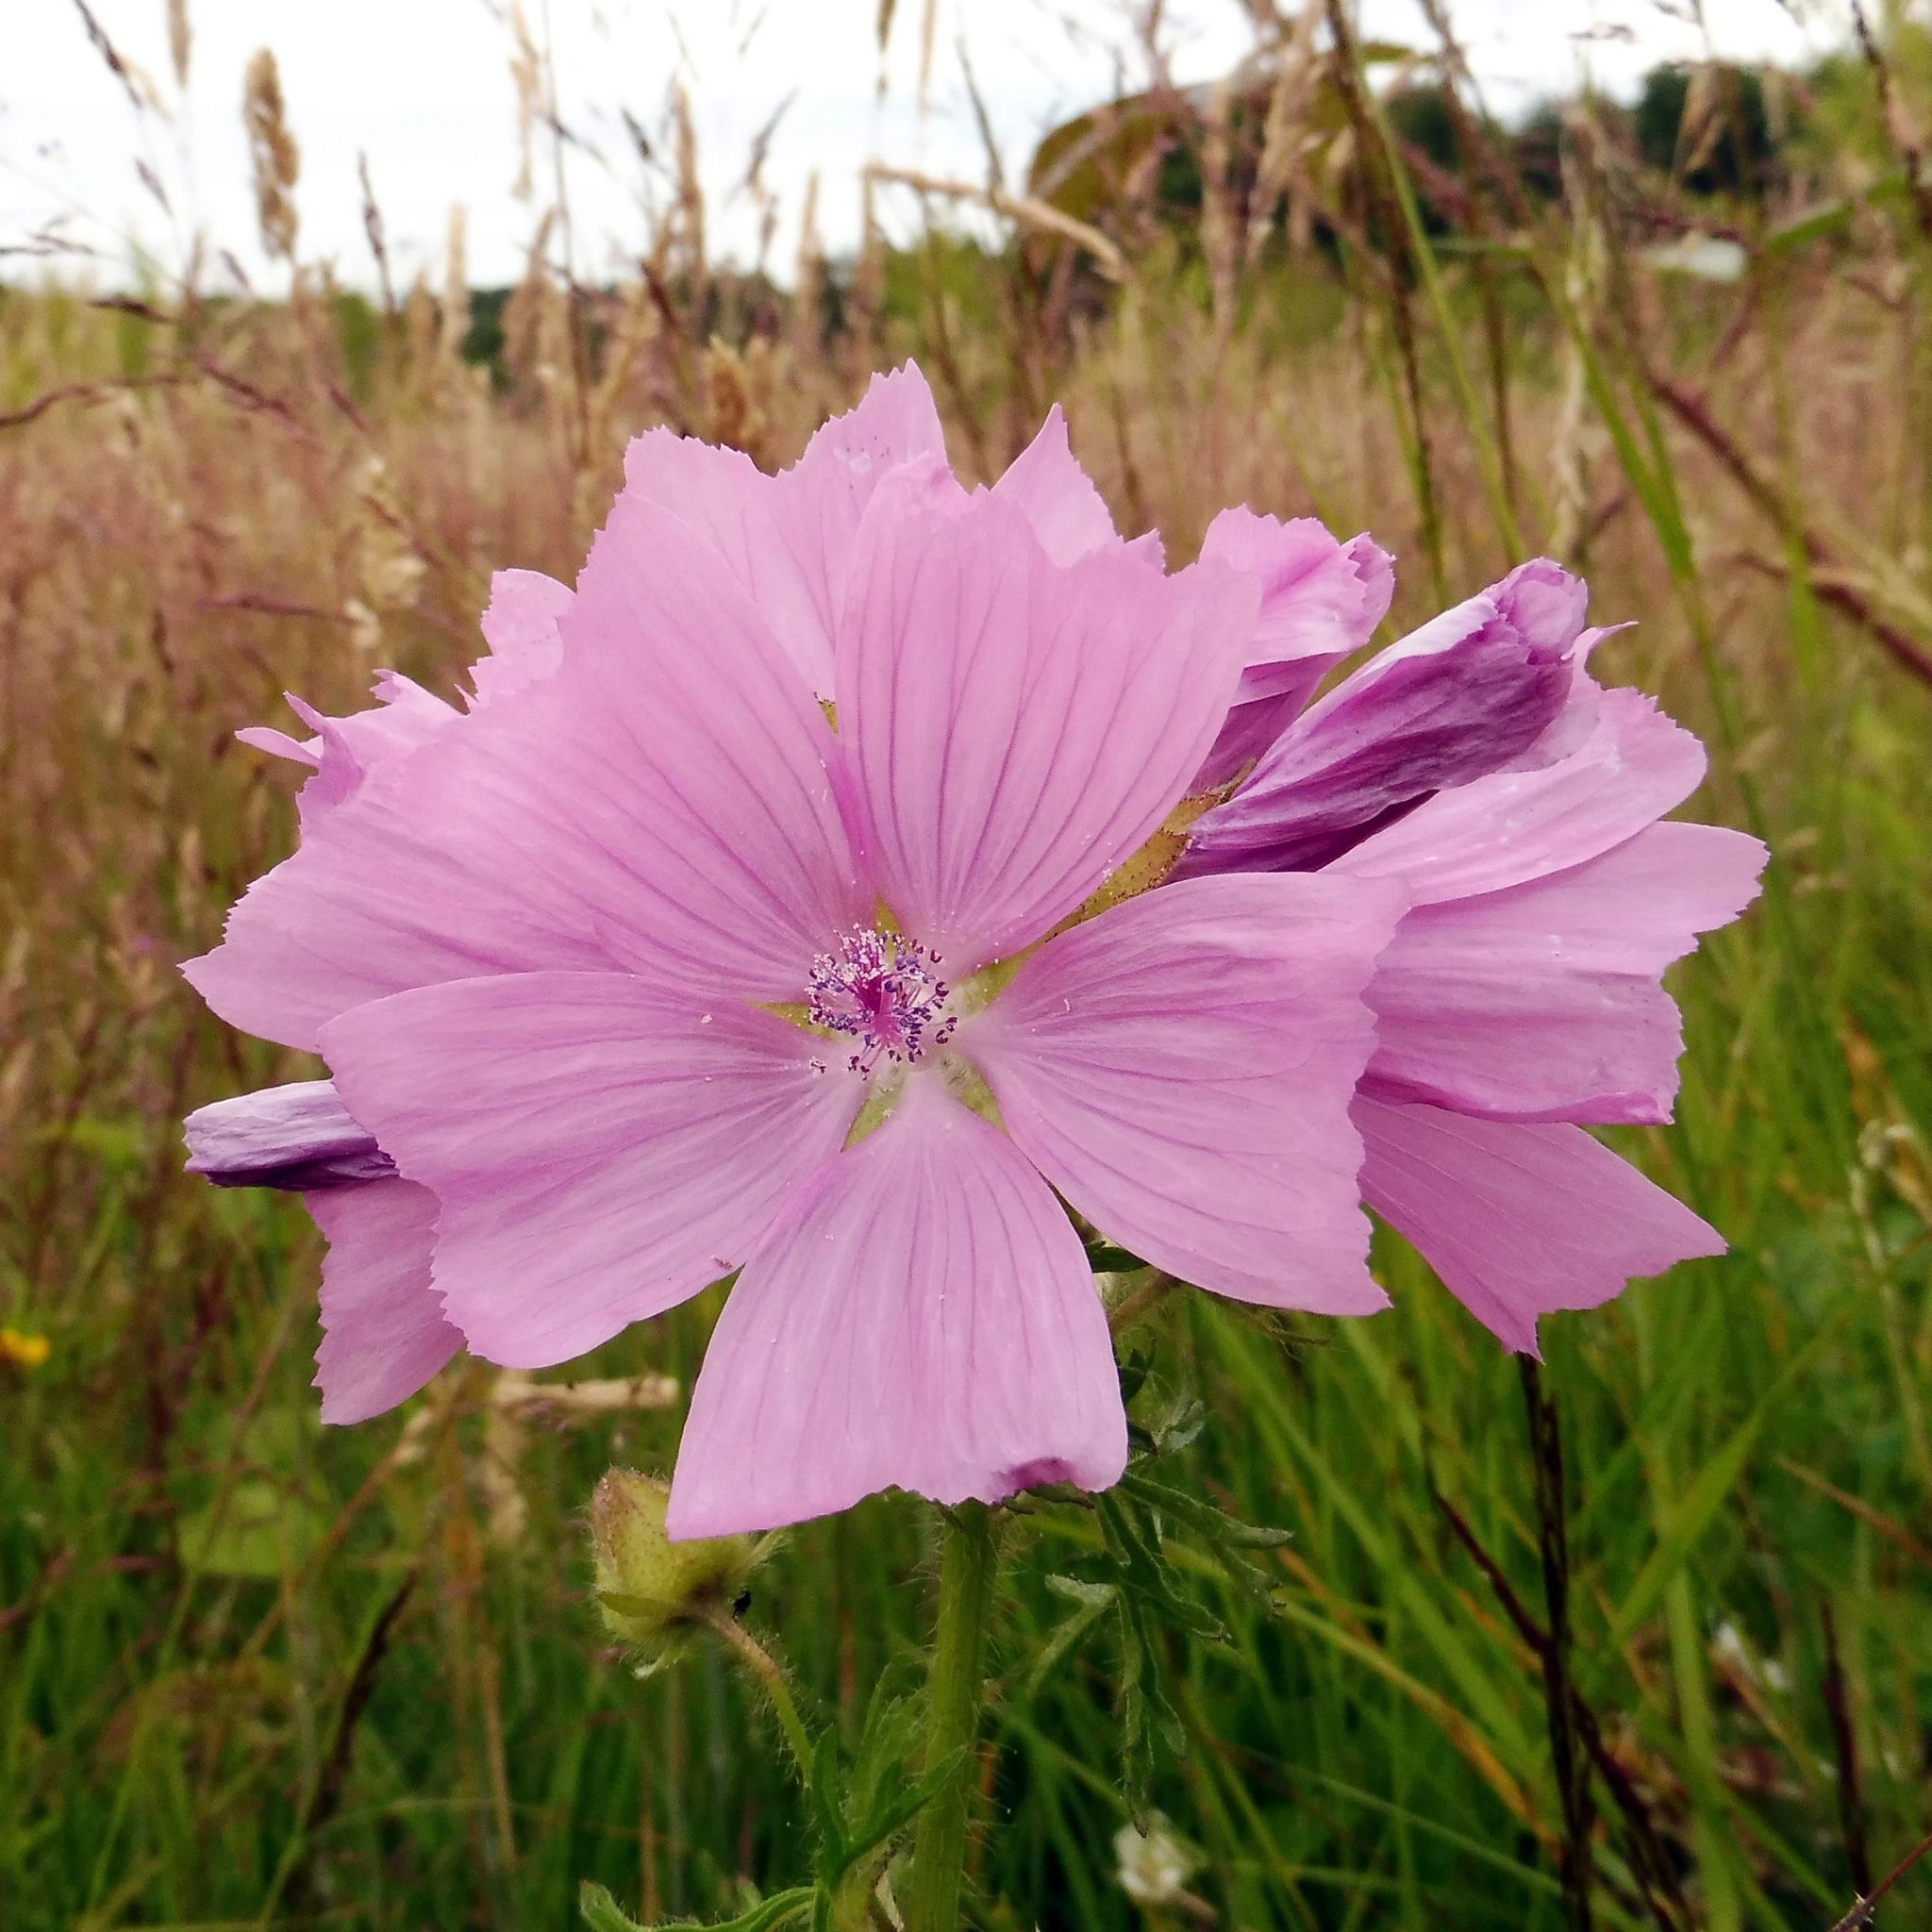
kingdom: Plantae
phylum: Tracheophyta
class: Magnoliopsida
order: Malvales
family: Malvaceae
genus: Malva
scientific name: Malva moschata
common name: Musk mallow
